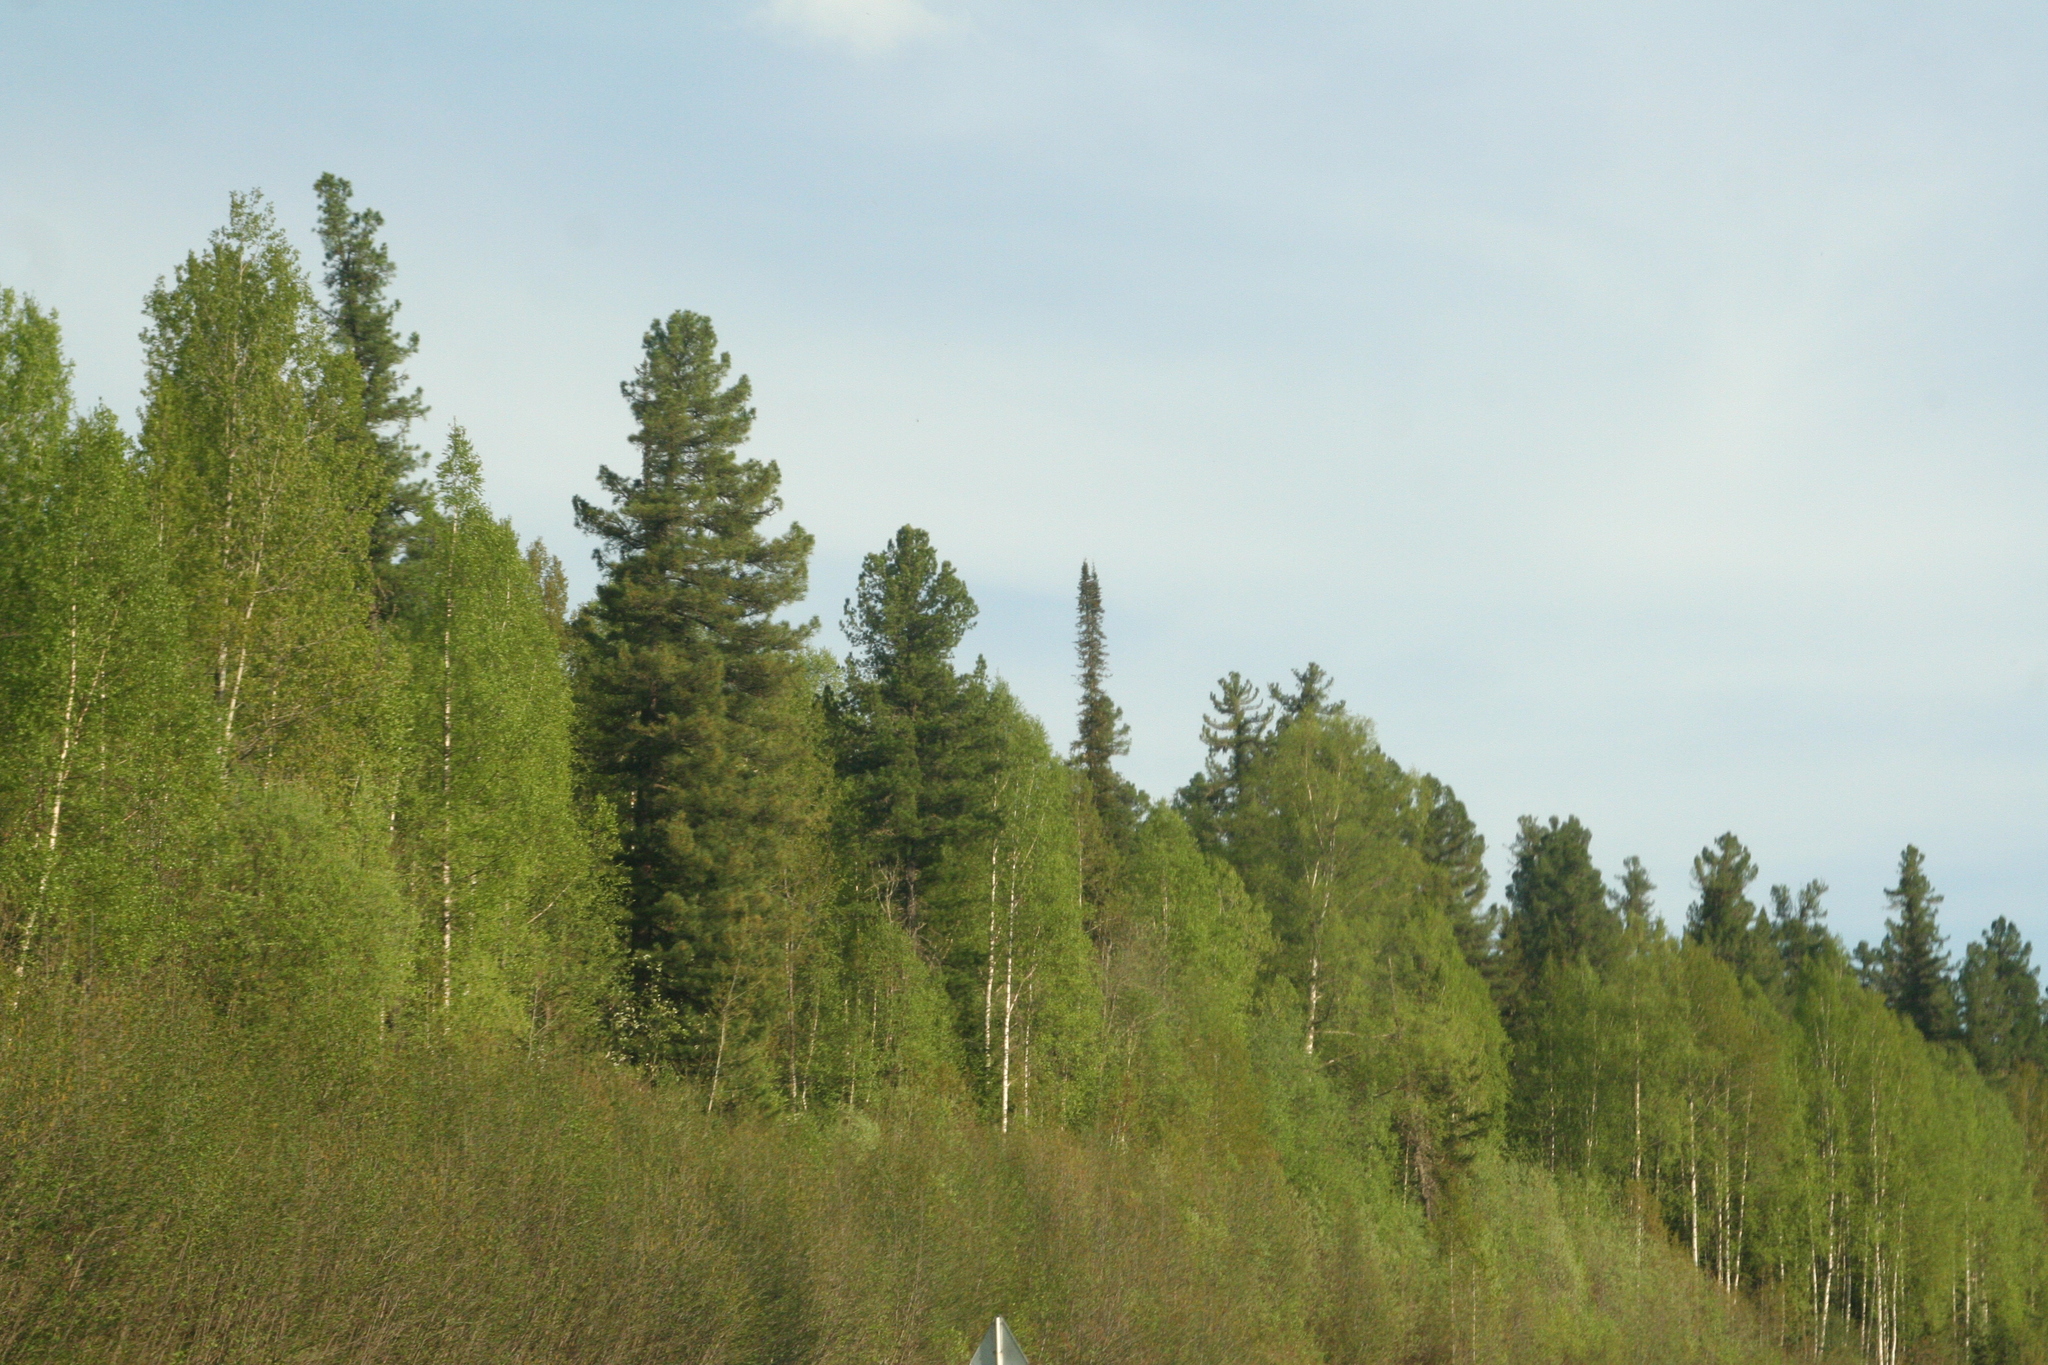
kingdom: Plantae
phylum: Tracheophyta
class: Pinopsida
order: Pinales
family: Pinaceae
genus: Pinus
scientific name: Pinus sibirica
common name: Siberian pine
